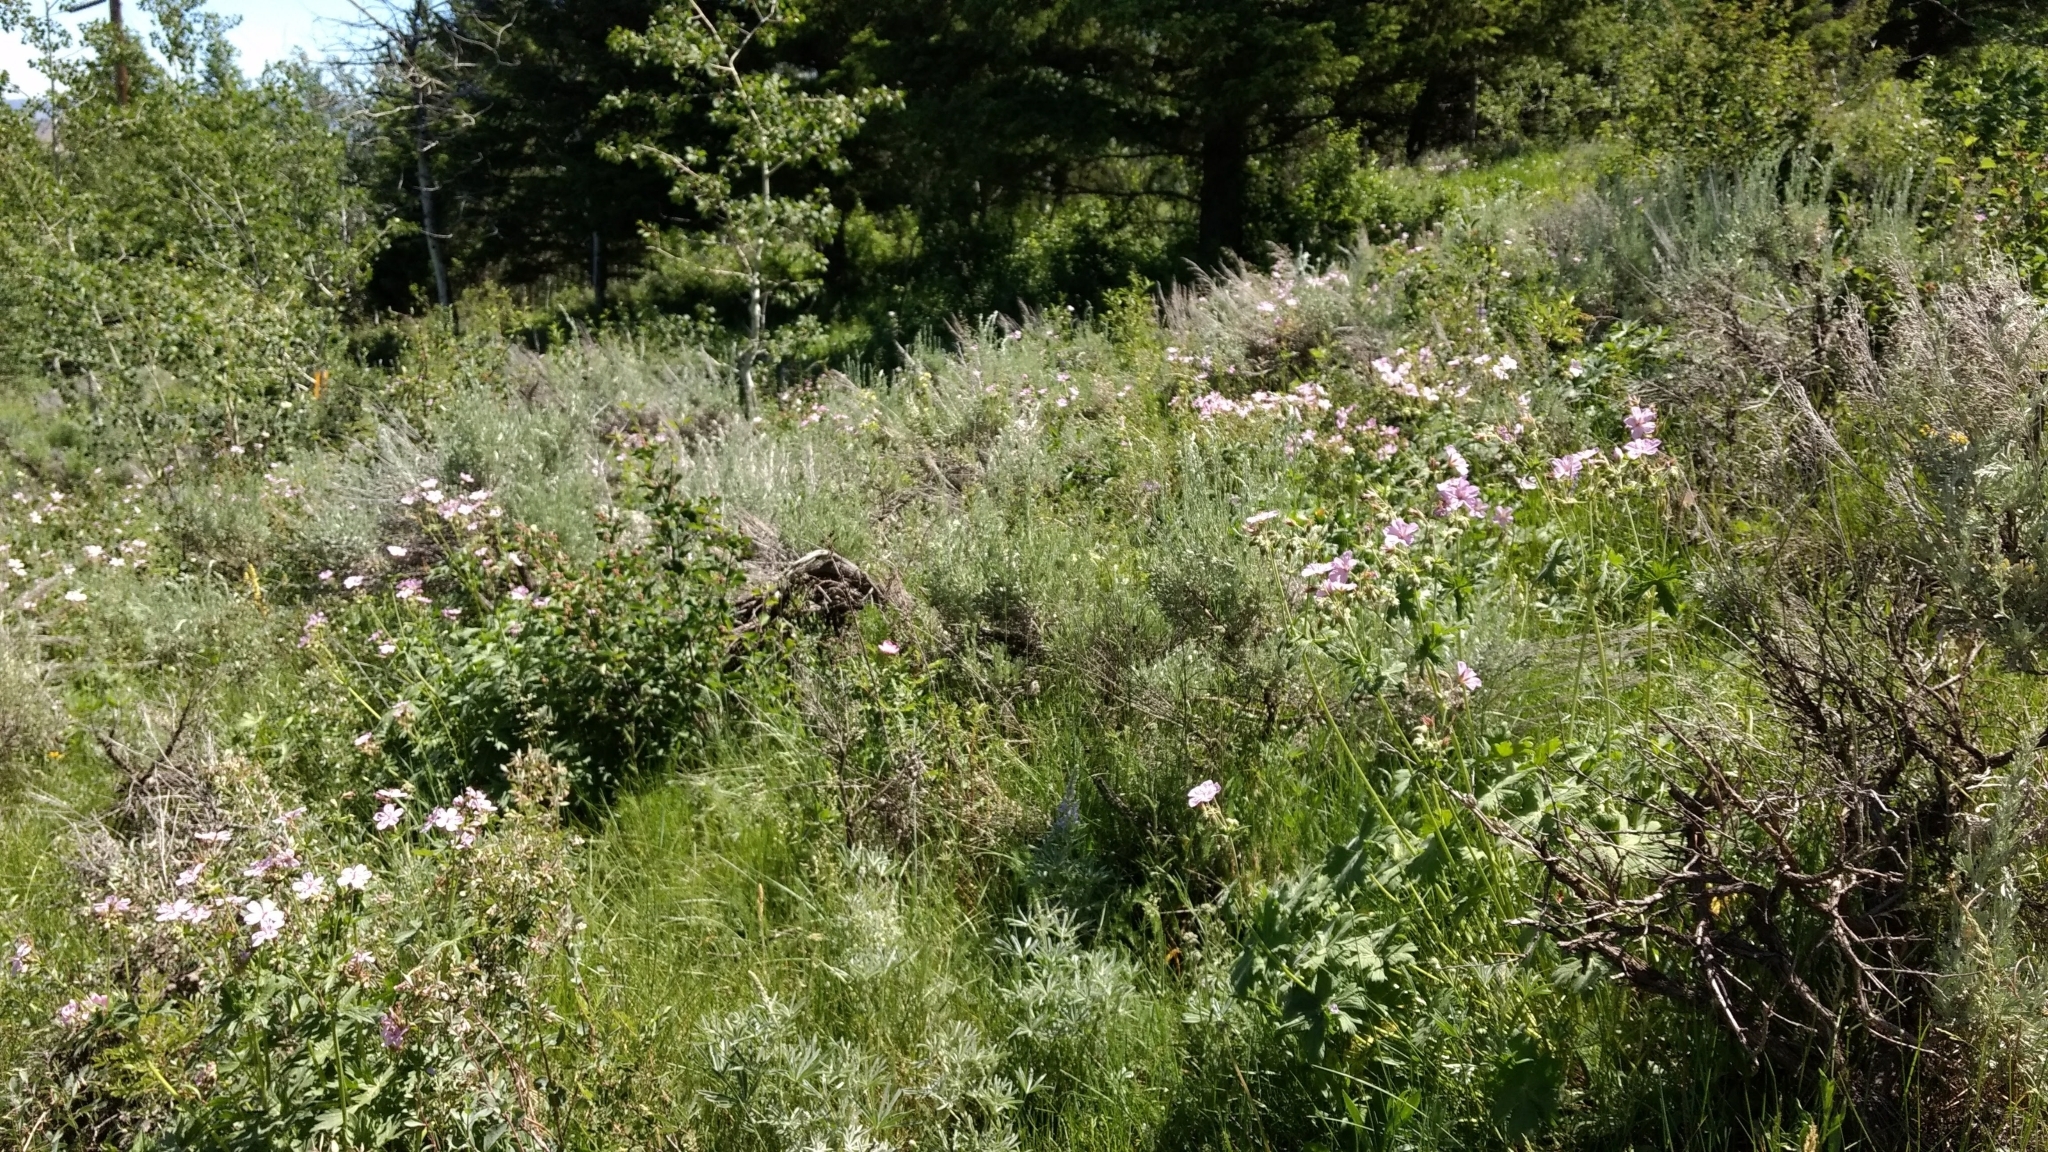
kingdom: Plantae
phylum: Tracheophyta
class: Magnoliopsida
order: Geraniales
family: Geraniaceae
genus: Geranium
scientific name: Geranium viscosissimum
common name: Purple geranium
